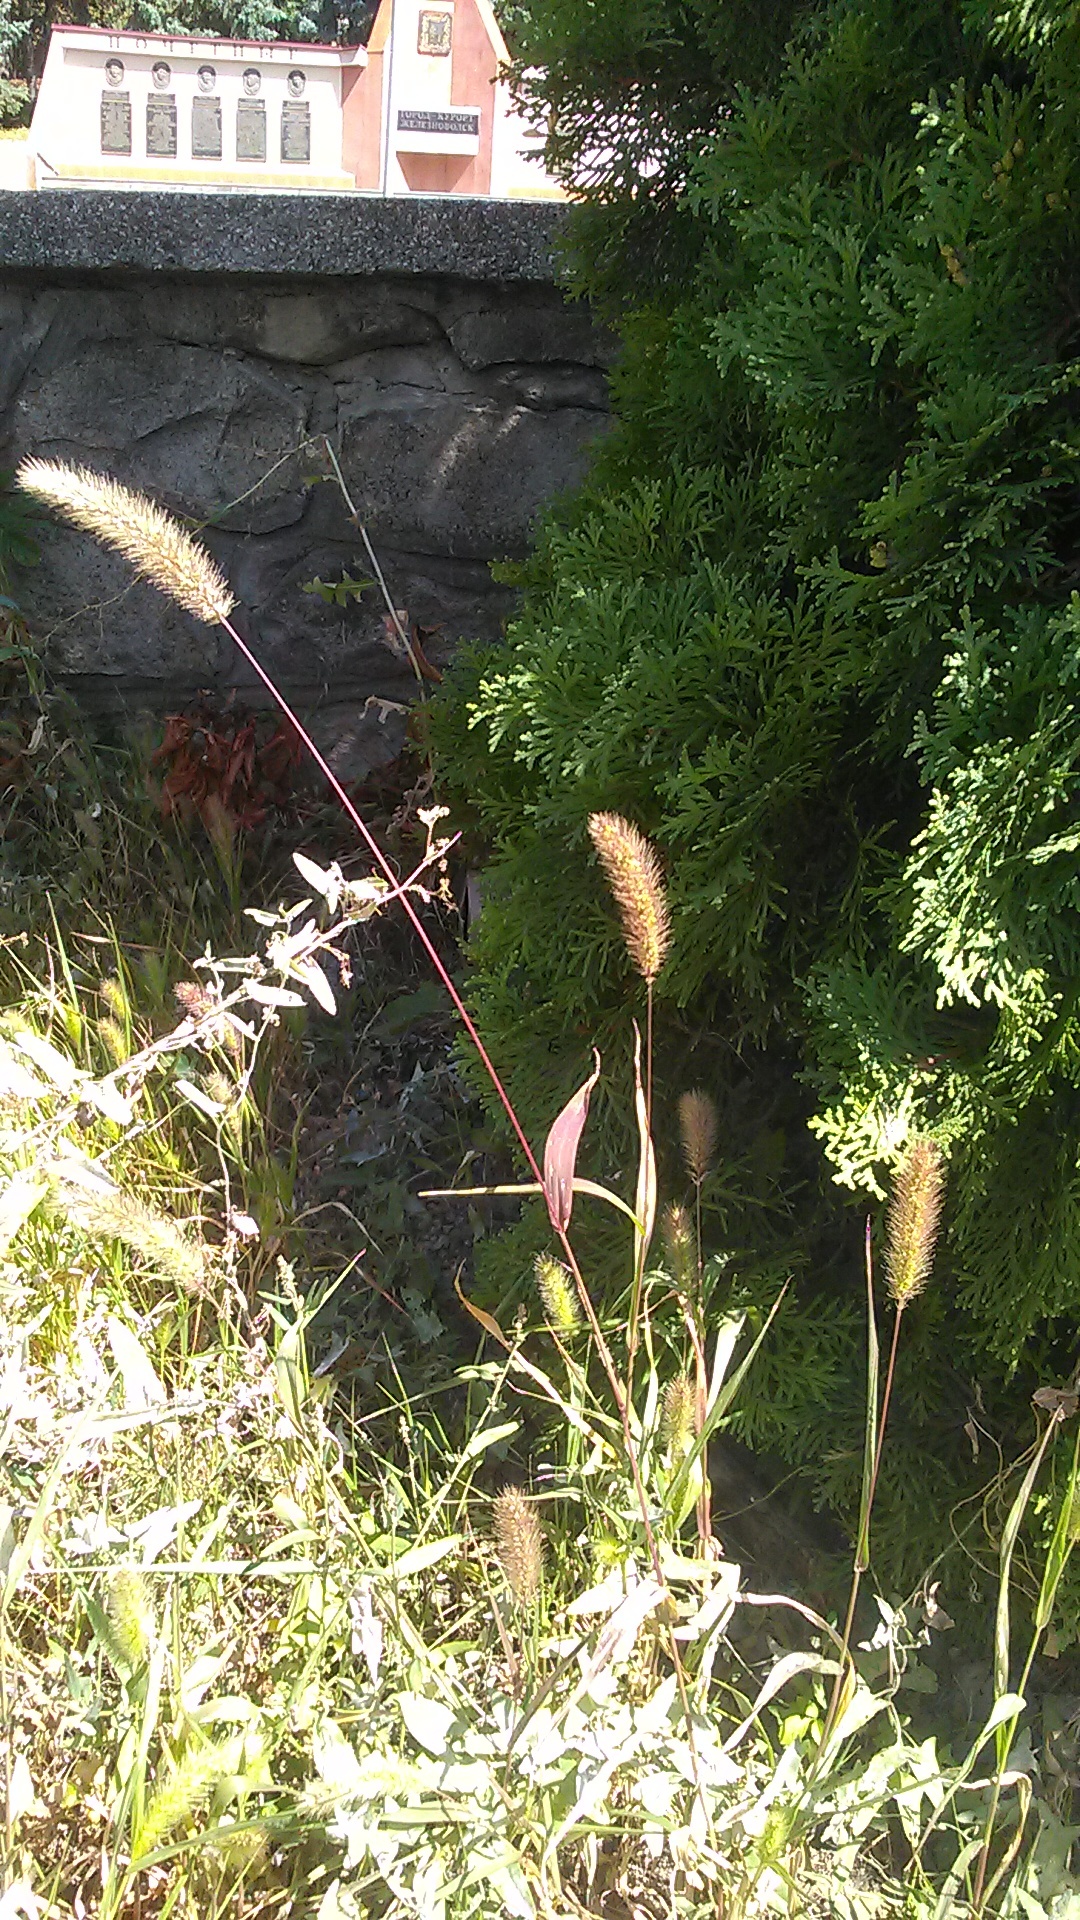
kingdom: Plantae
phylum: Tracheophyta
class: Liliopsida
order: Poales
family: Poaceae
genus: Setaria
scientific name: Setaria viridis
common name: Green bristlegrass
